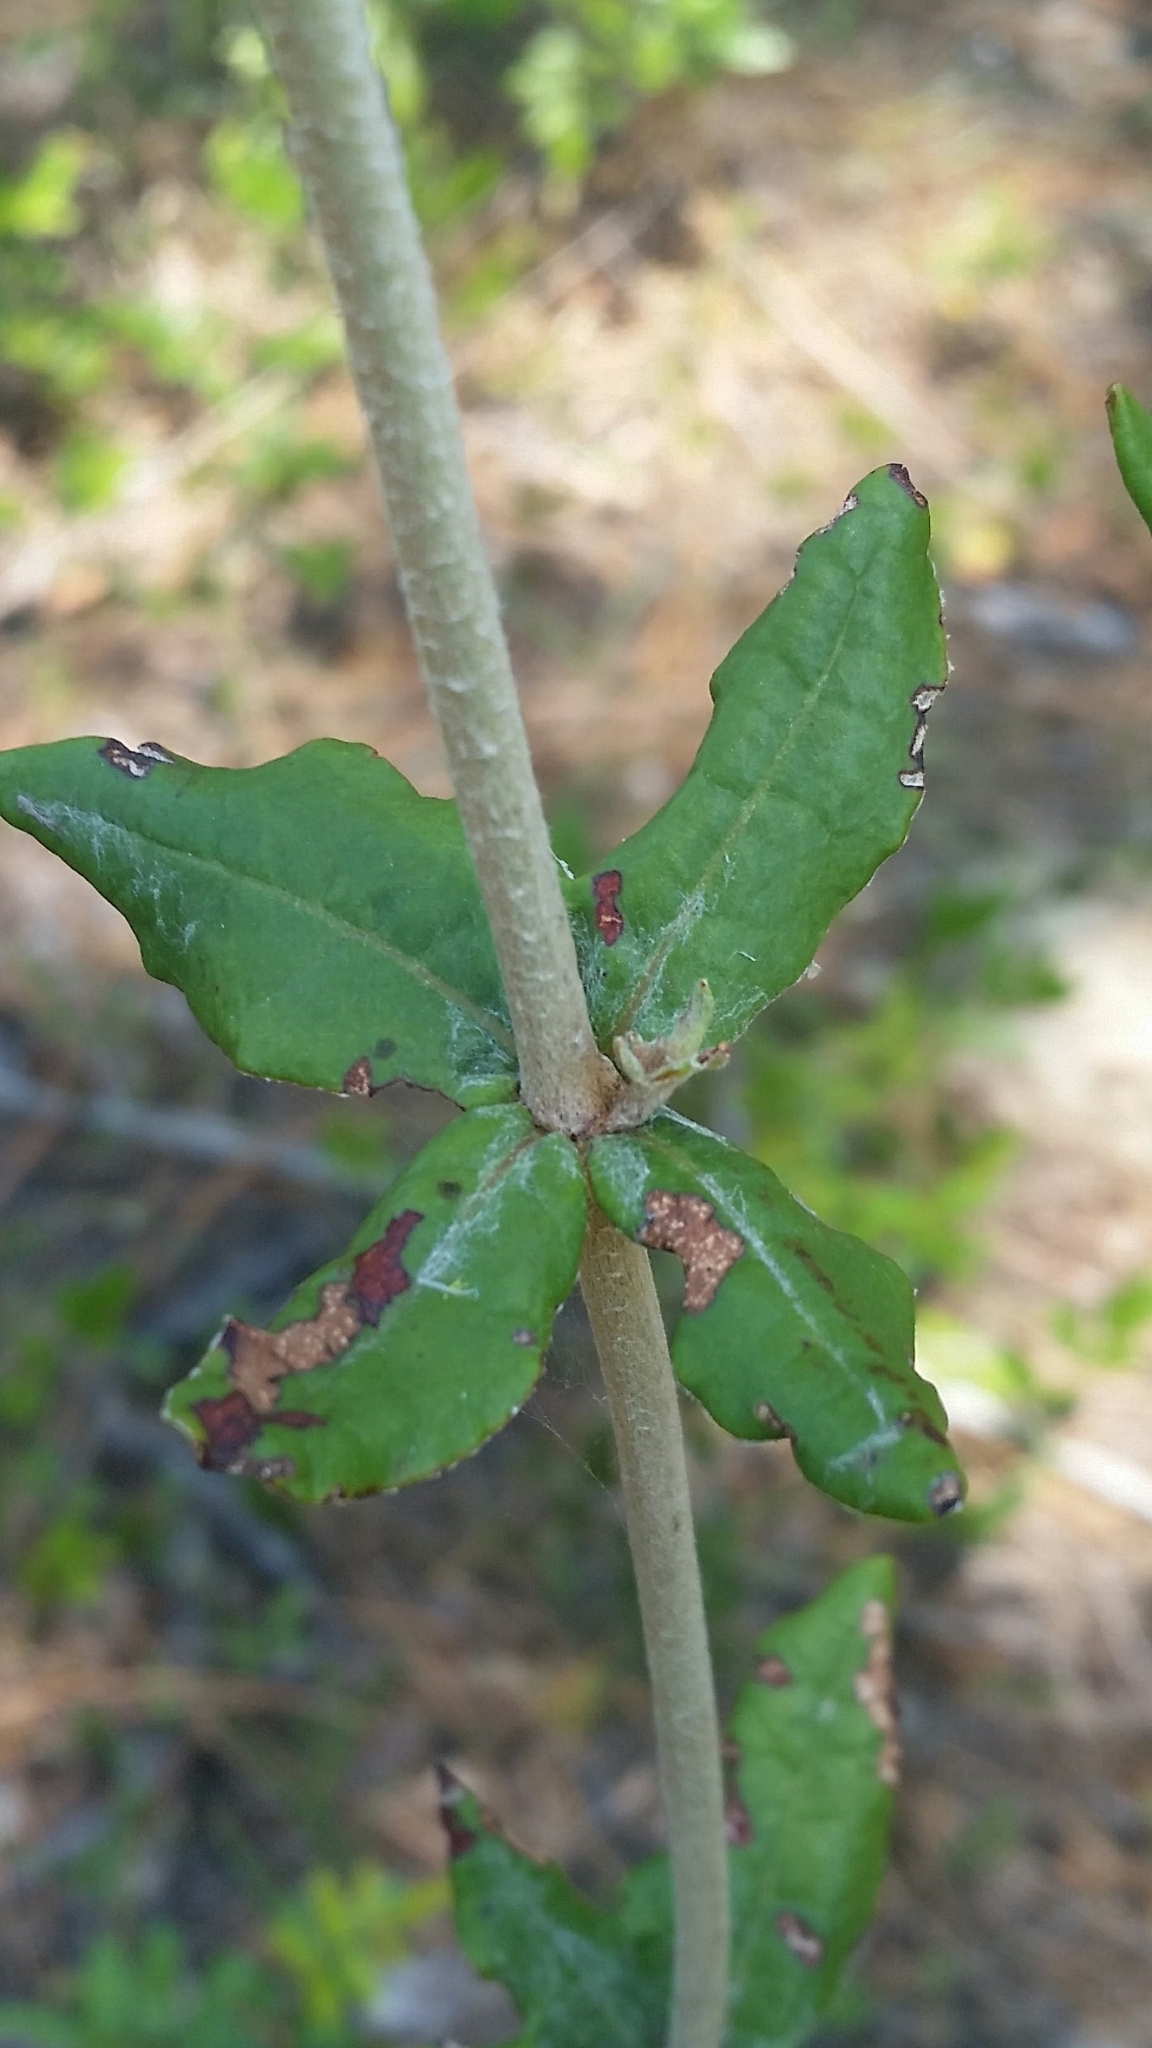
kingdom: Plantae
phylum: Tracheophyta
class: Magnoliopsida
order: Caryophyllales
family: Polygonaceae
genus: Eriogonum
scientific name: Eriogonum tomentosum
